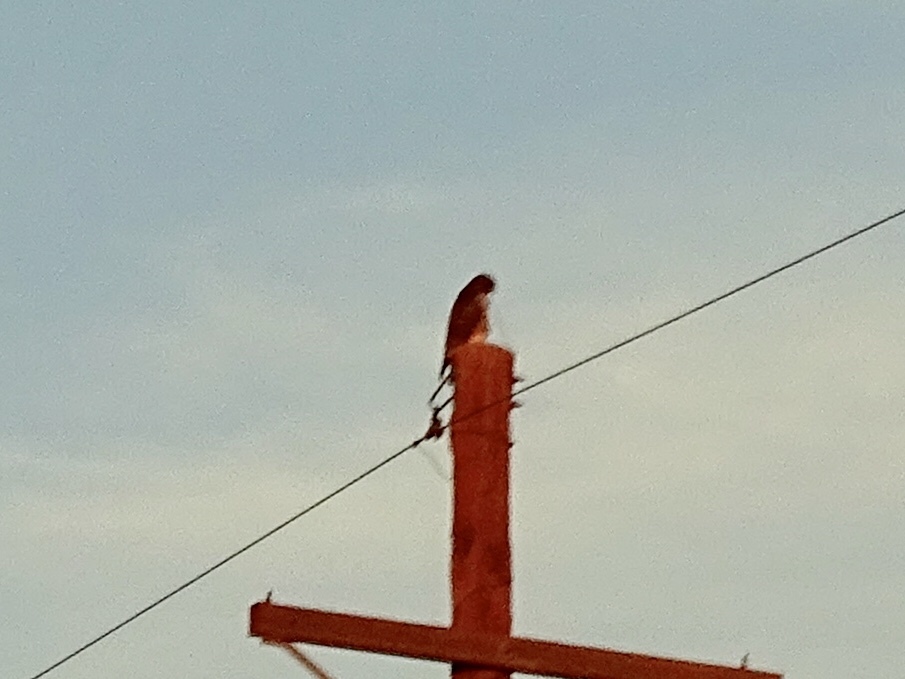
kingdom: Animalia
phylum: Chordata
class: Aves
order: Accipitriformes
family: Accipitridae
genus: Buteo
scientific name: Buteo jamaicensis
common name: Red-tailed hawk
